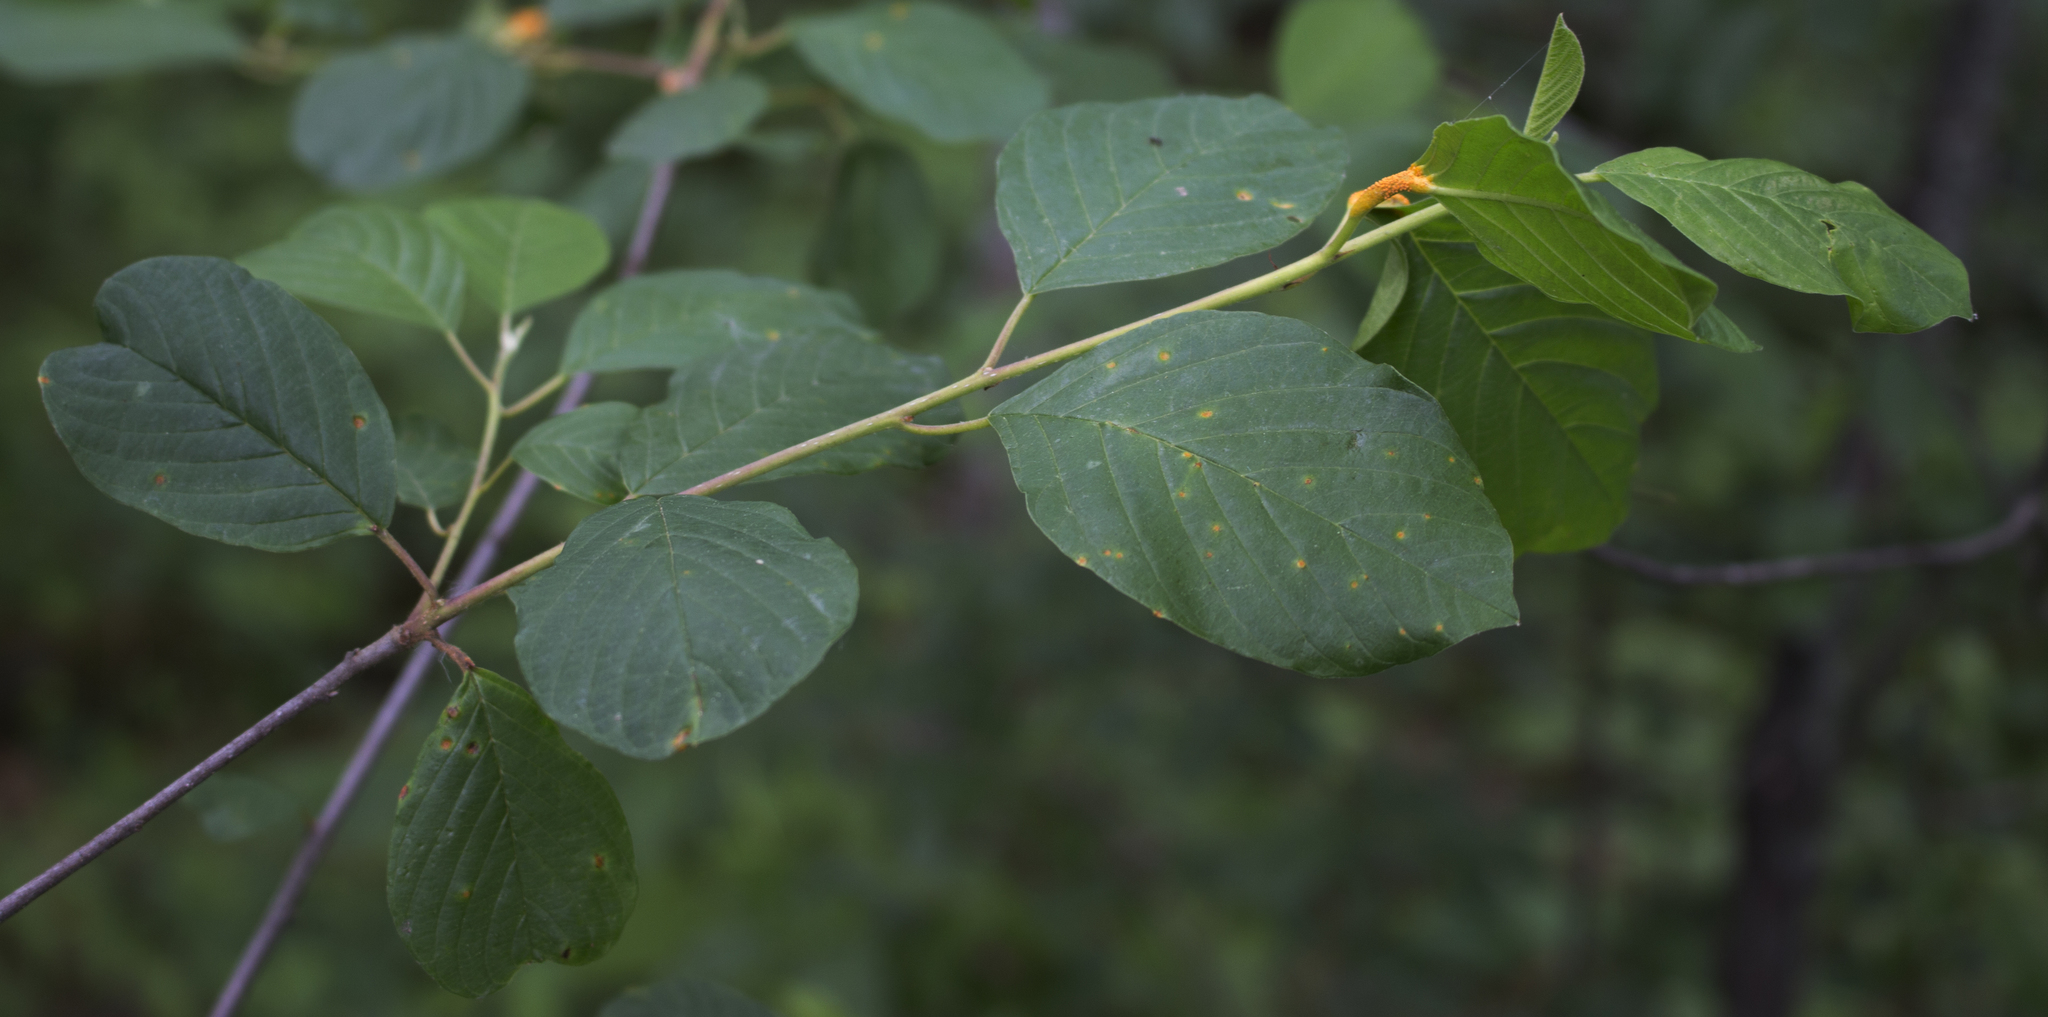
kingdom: Plantae
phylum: Tracheophyta
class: Magnoliopsida
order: Rosales
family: Rhamnaceae
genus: Frangula
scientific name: Frangula alnus
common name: Alder buckthorn
